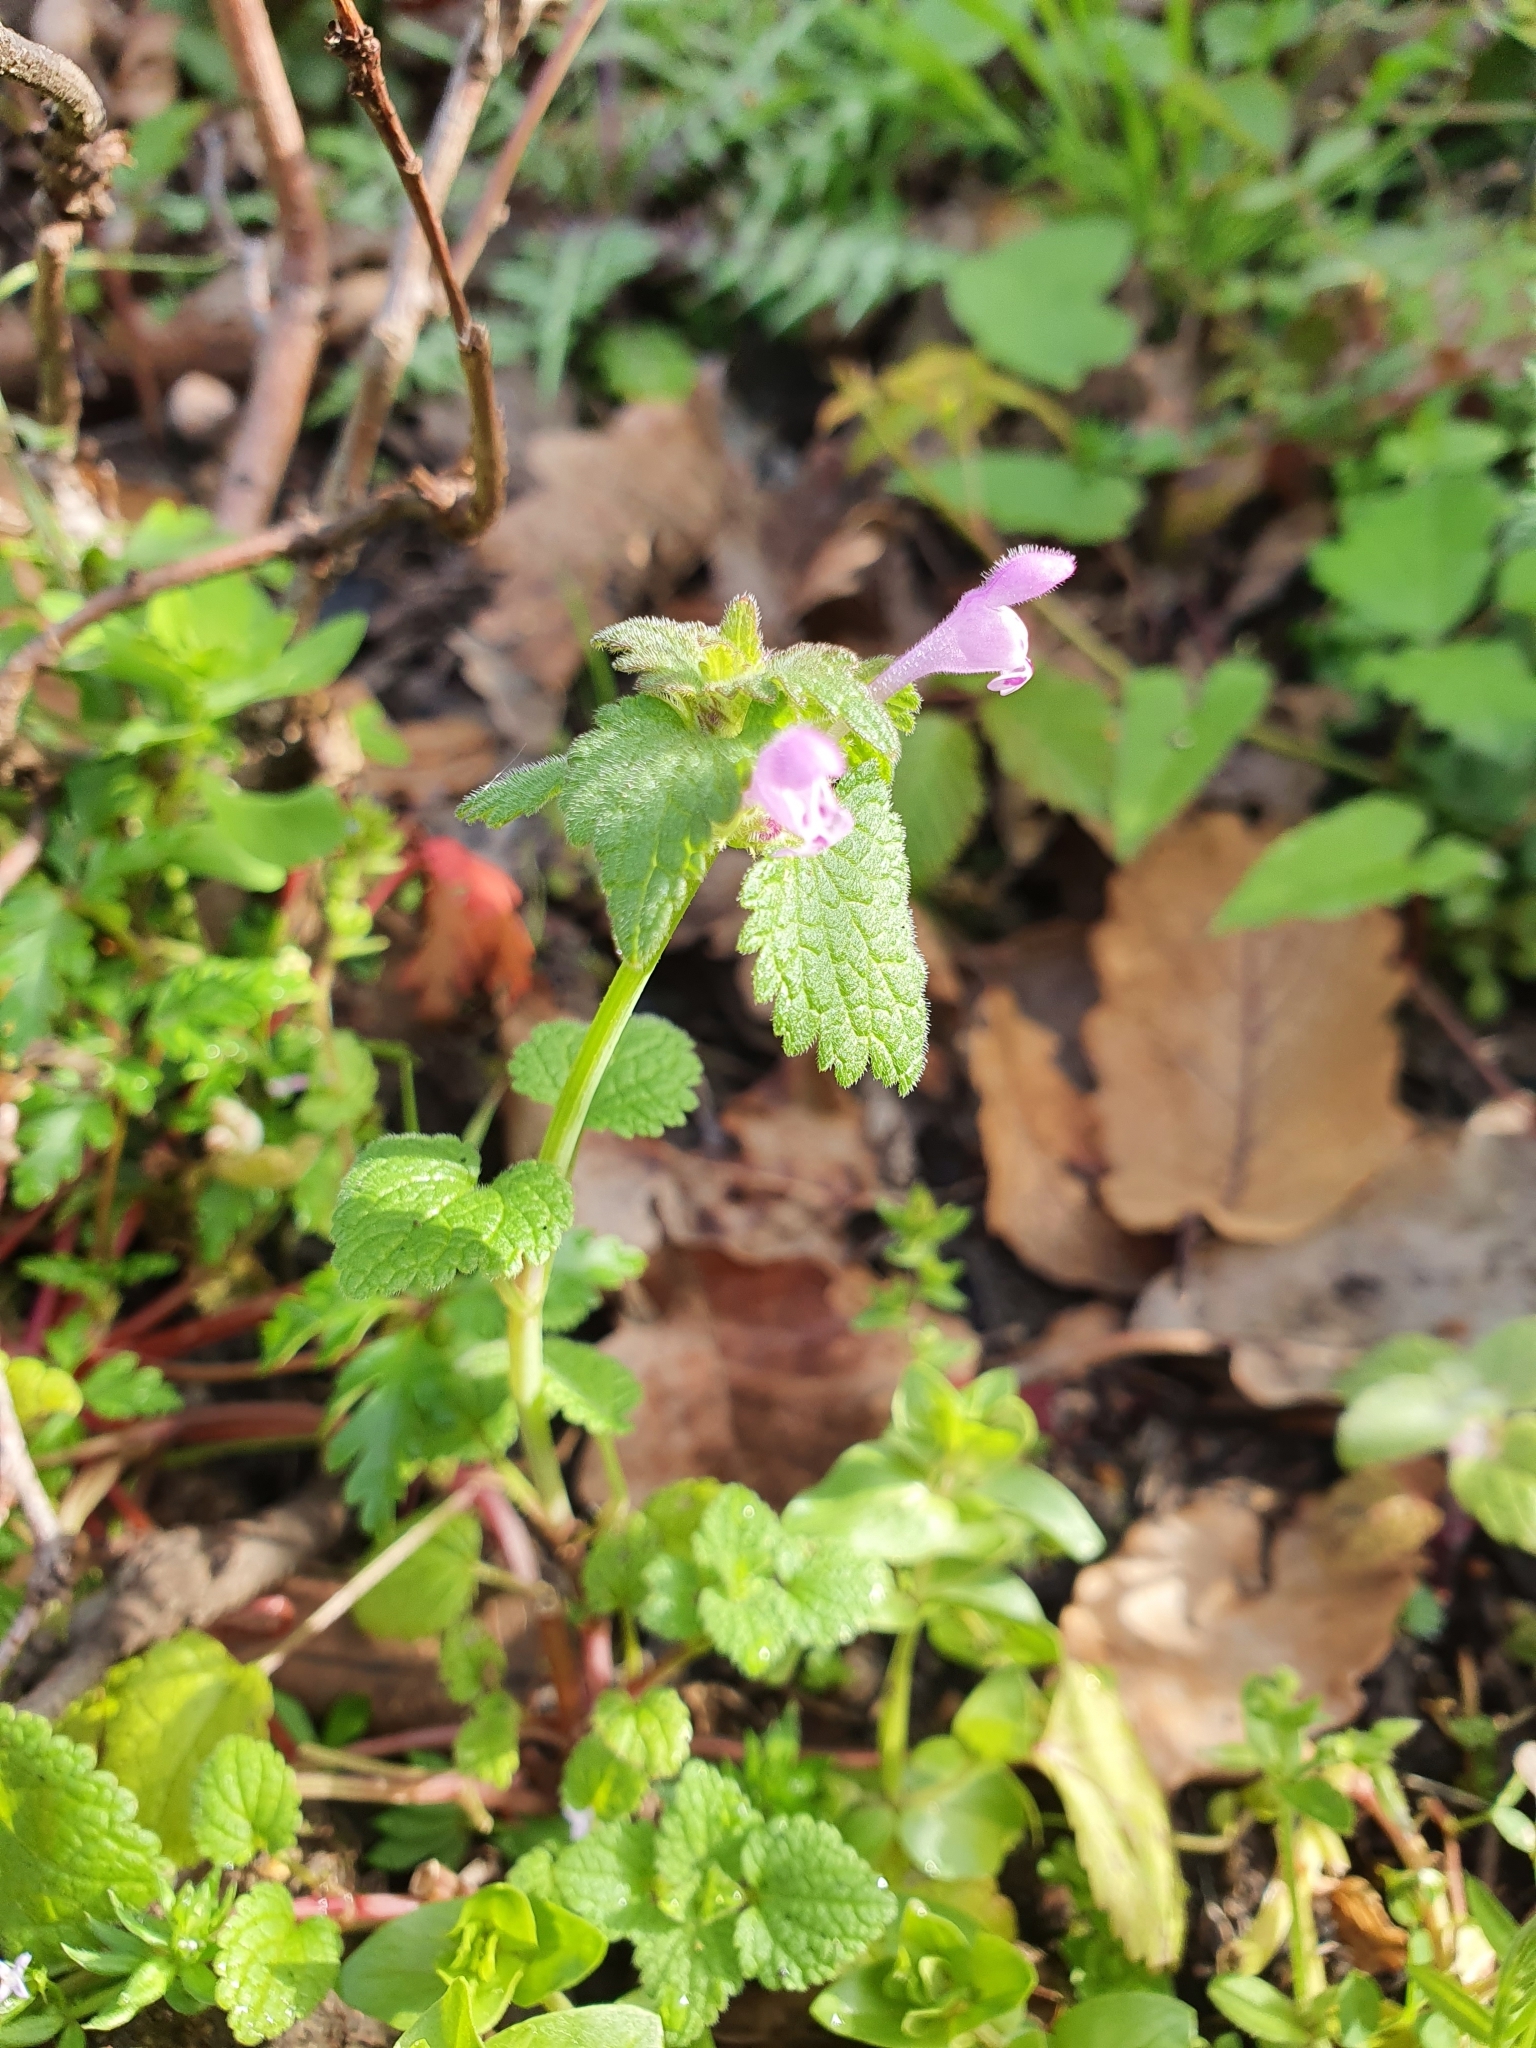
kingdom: Plantae
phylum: Tracheophyta
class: Magnoliopsida
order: Lamiales
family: Lamiaceae
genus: Lamium
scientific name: Lamium amplexicaule
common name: Henbit dead-nettle
